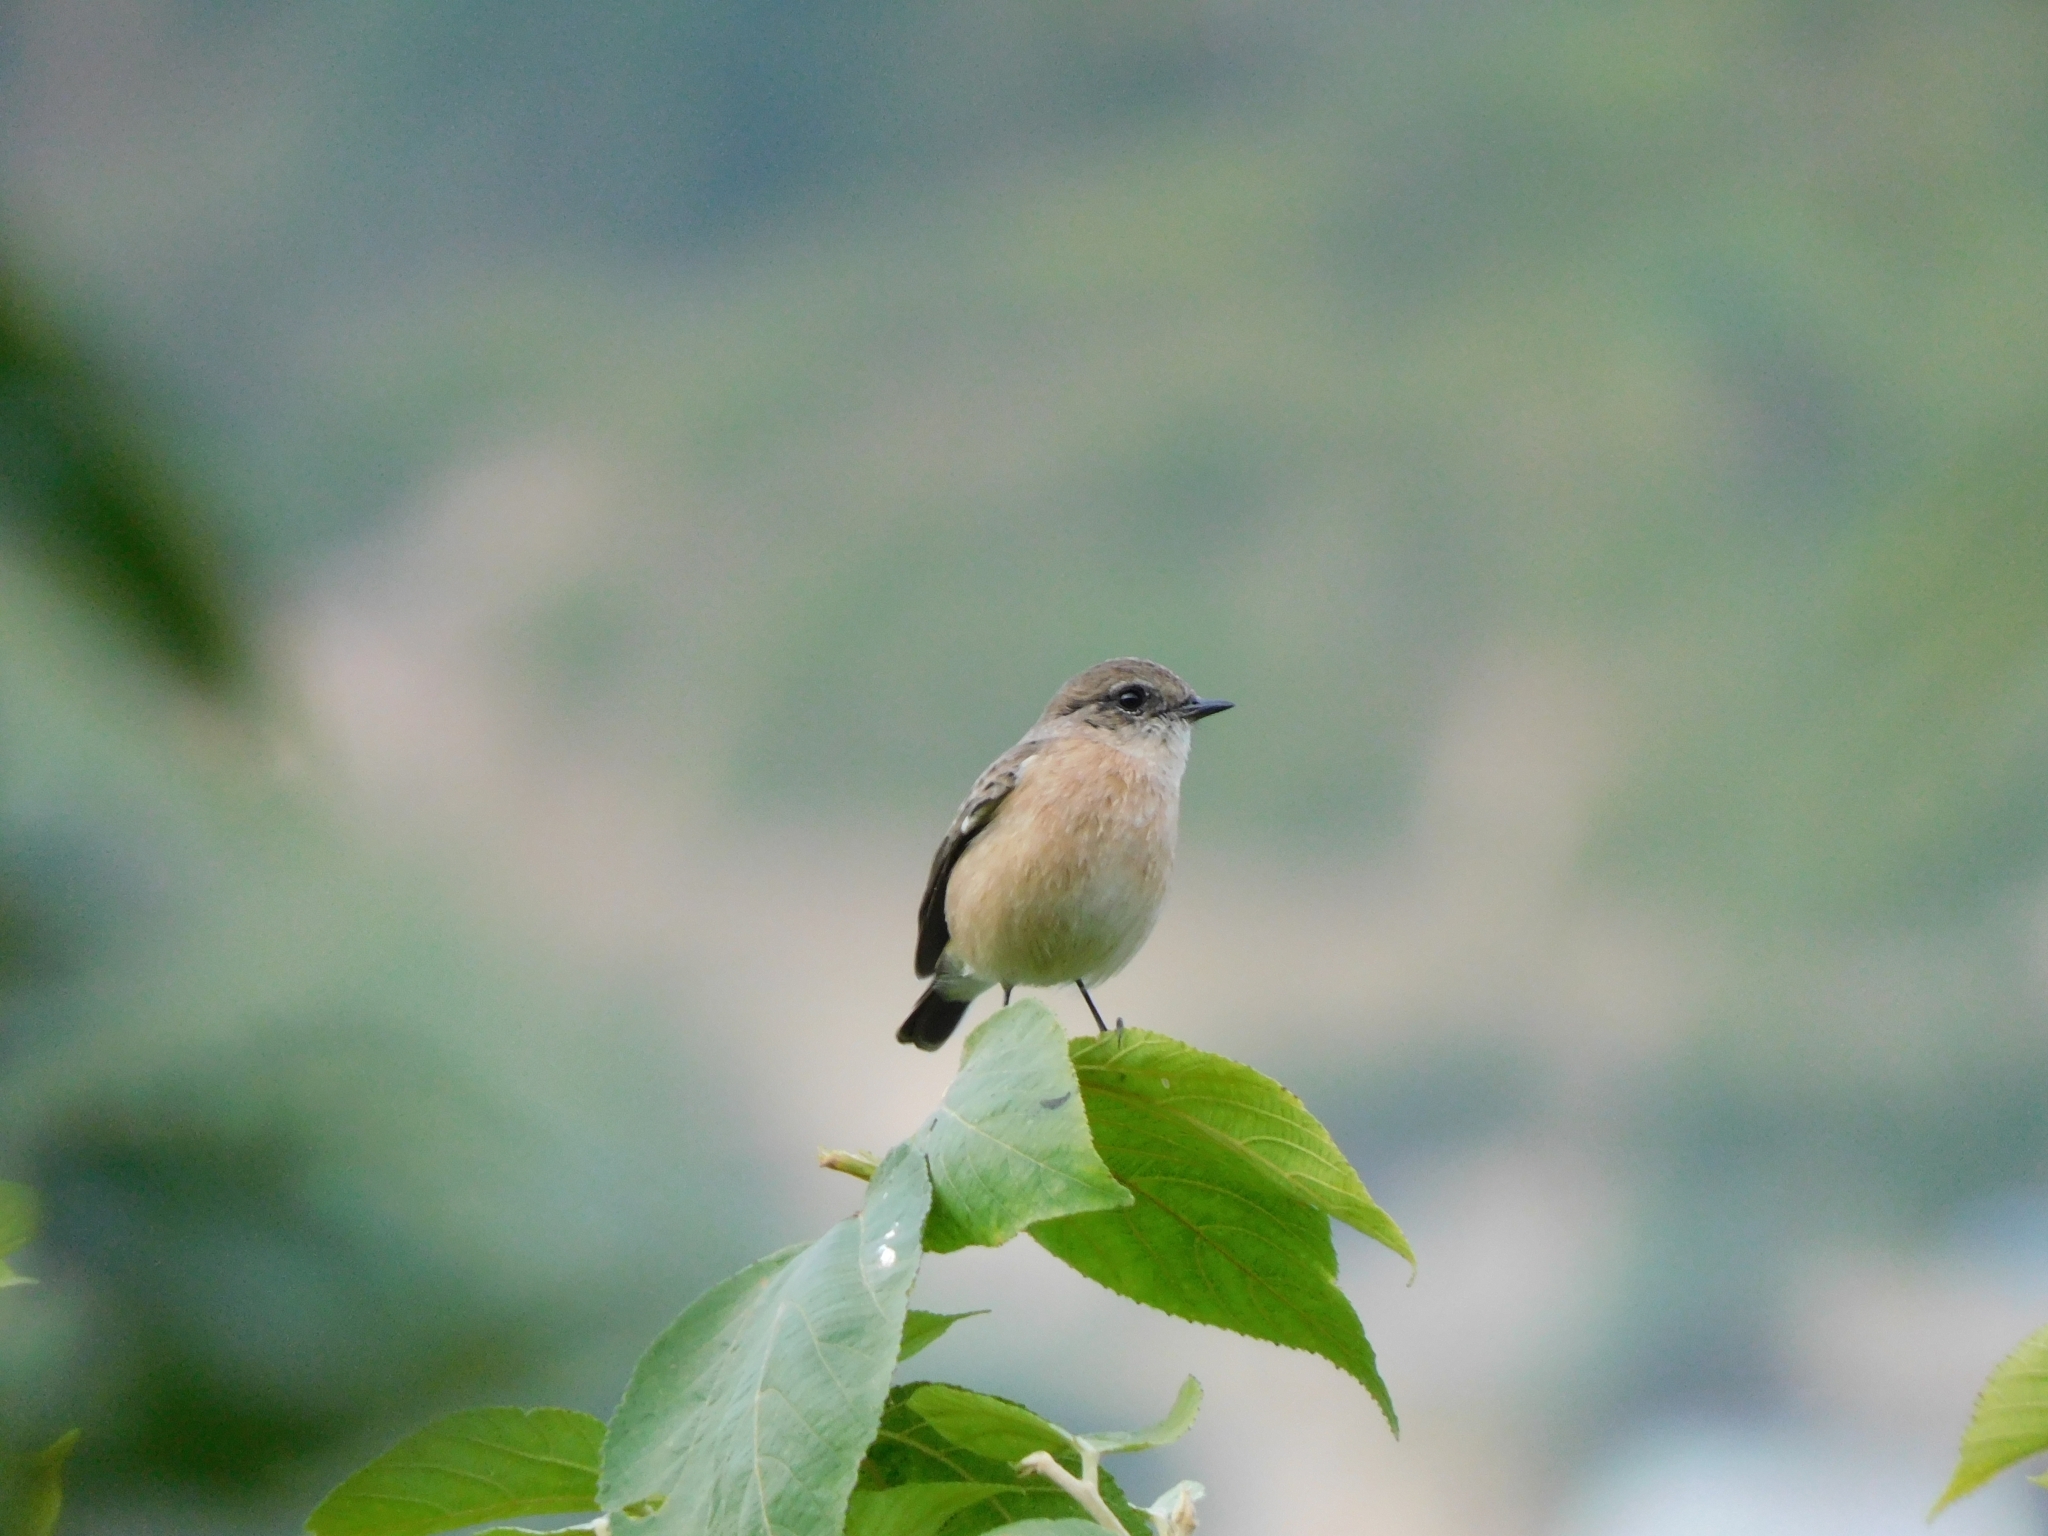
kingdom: Animalia
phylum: Chordata
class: Aves
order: Passeriformes
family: Muscicapidae
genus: Saxicola
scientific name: Saxicola maurus
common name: Siberian stonechat
